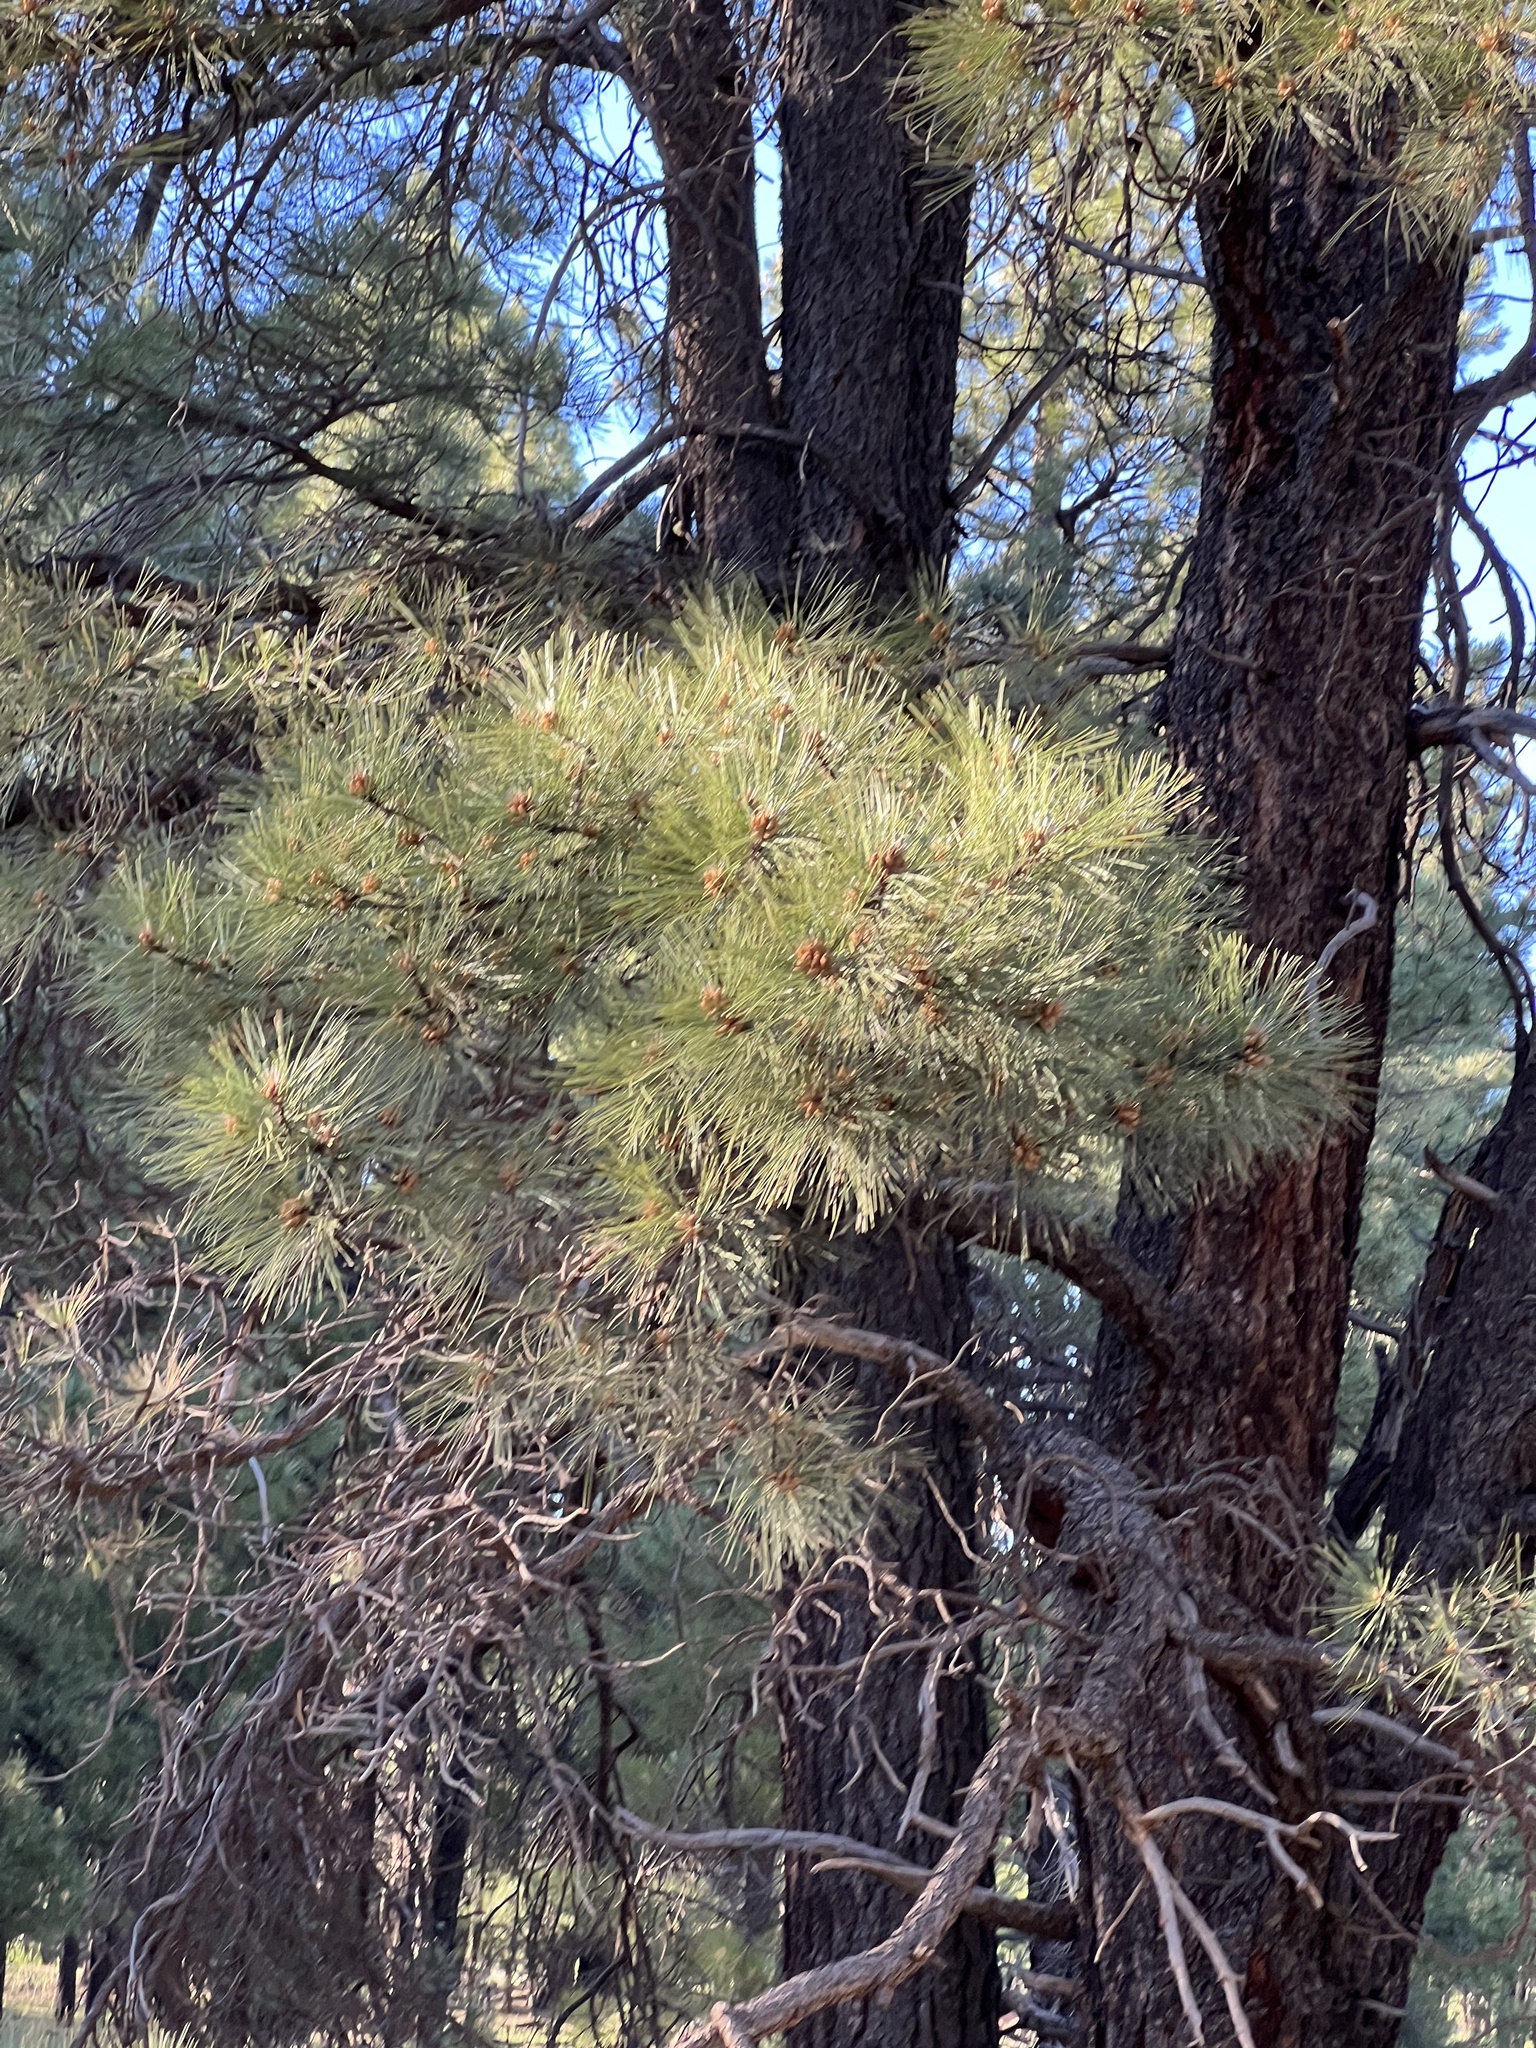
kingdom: Plantae
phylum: Tracheophyta
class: Pinopsida
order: Pinales
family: Pinaceae
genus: Pinus
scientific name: Pinus ponderosa
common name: Western yellow-pine
